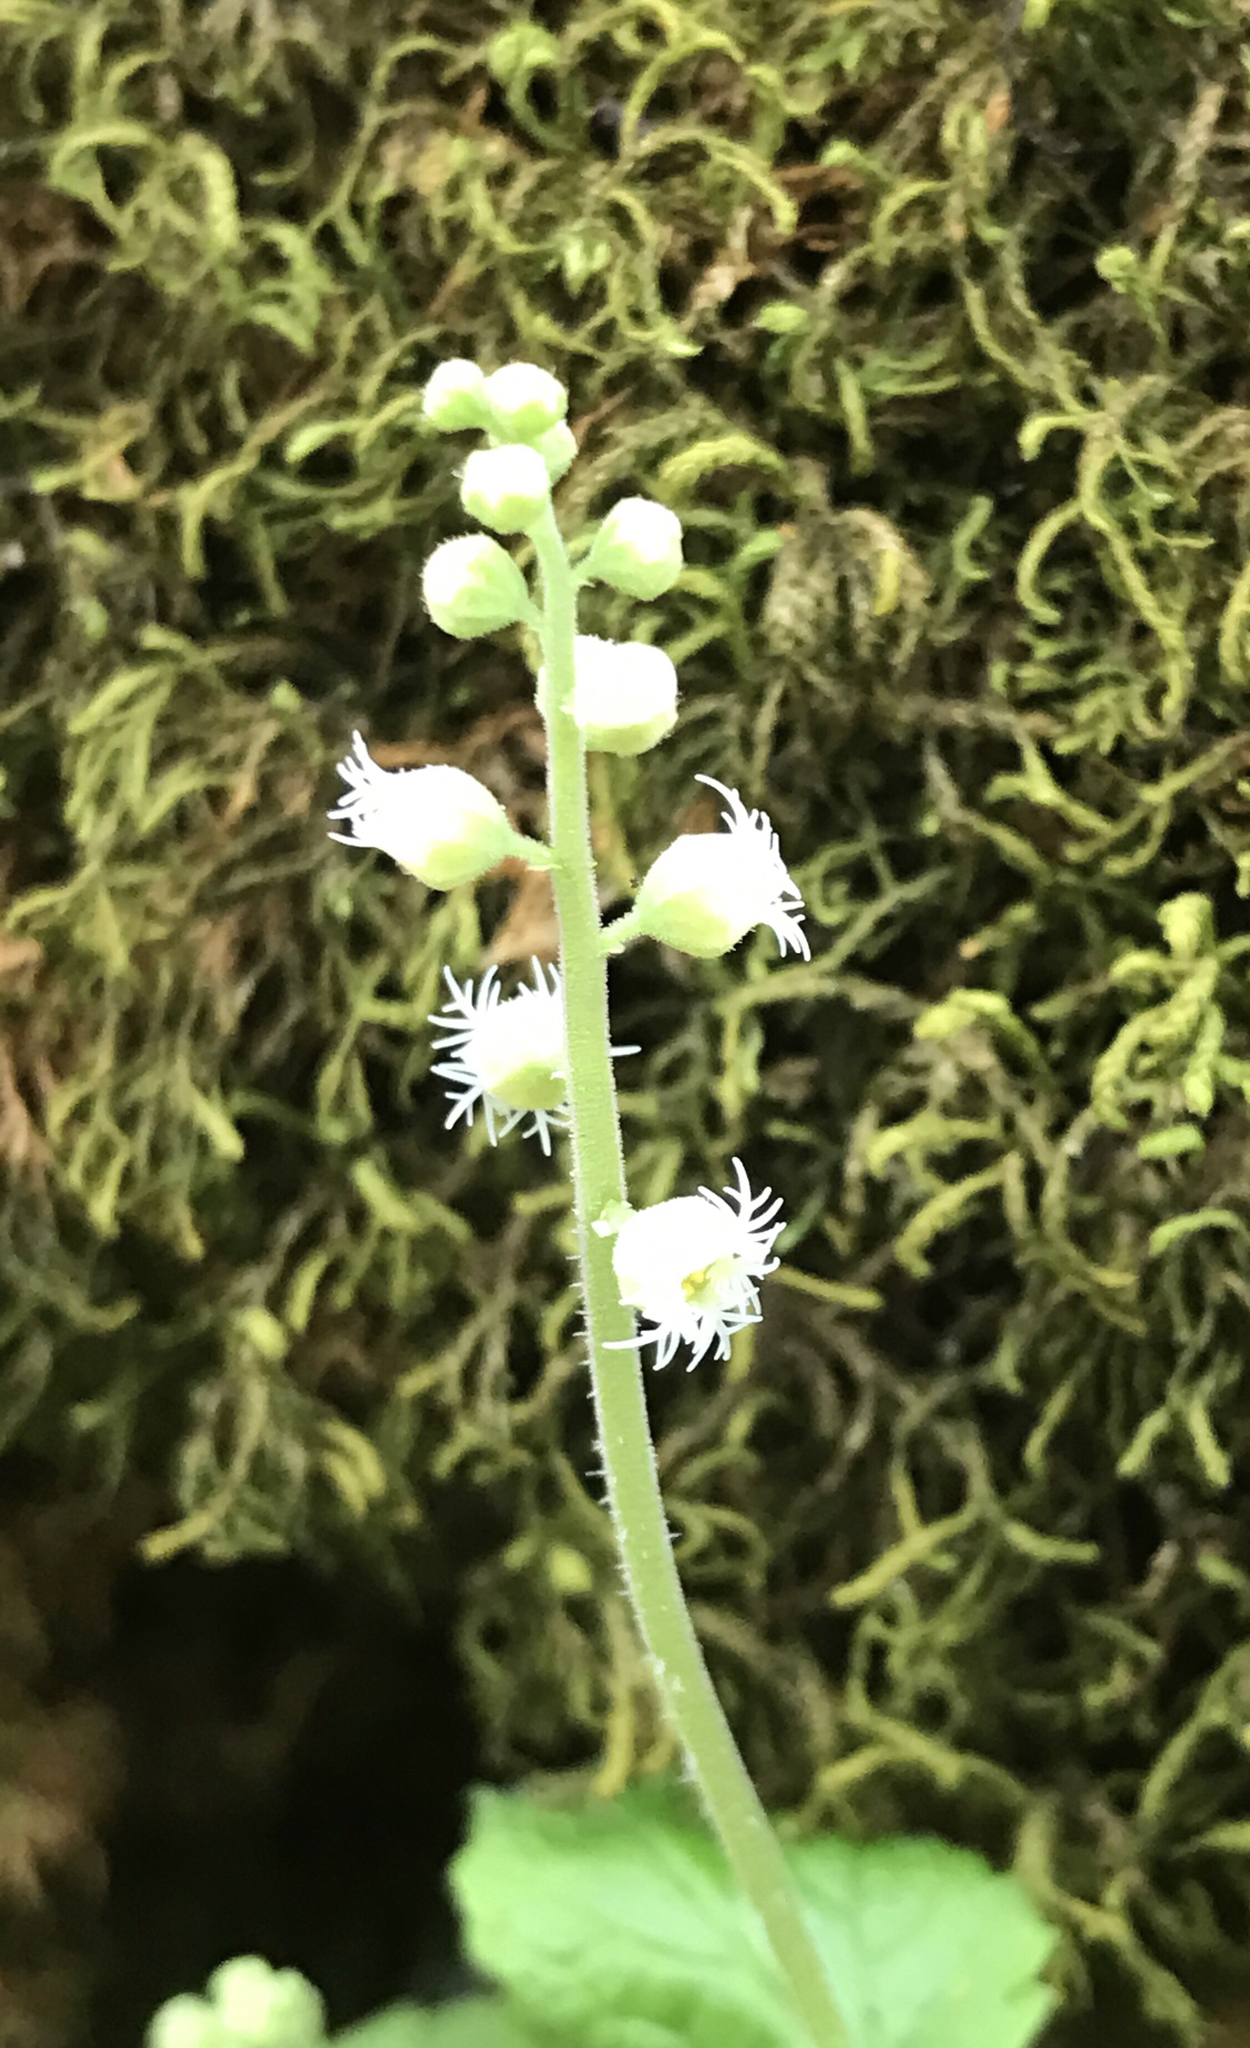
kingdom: Plantae
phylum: Tracheophyta
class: Magnoliopsida
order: Saxifragales
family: Saxifragaceae
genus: Mitella
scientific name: Mitella diphylla
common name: Coolwort
